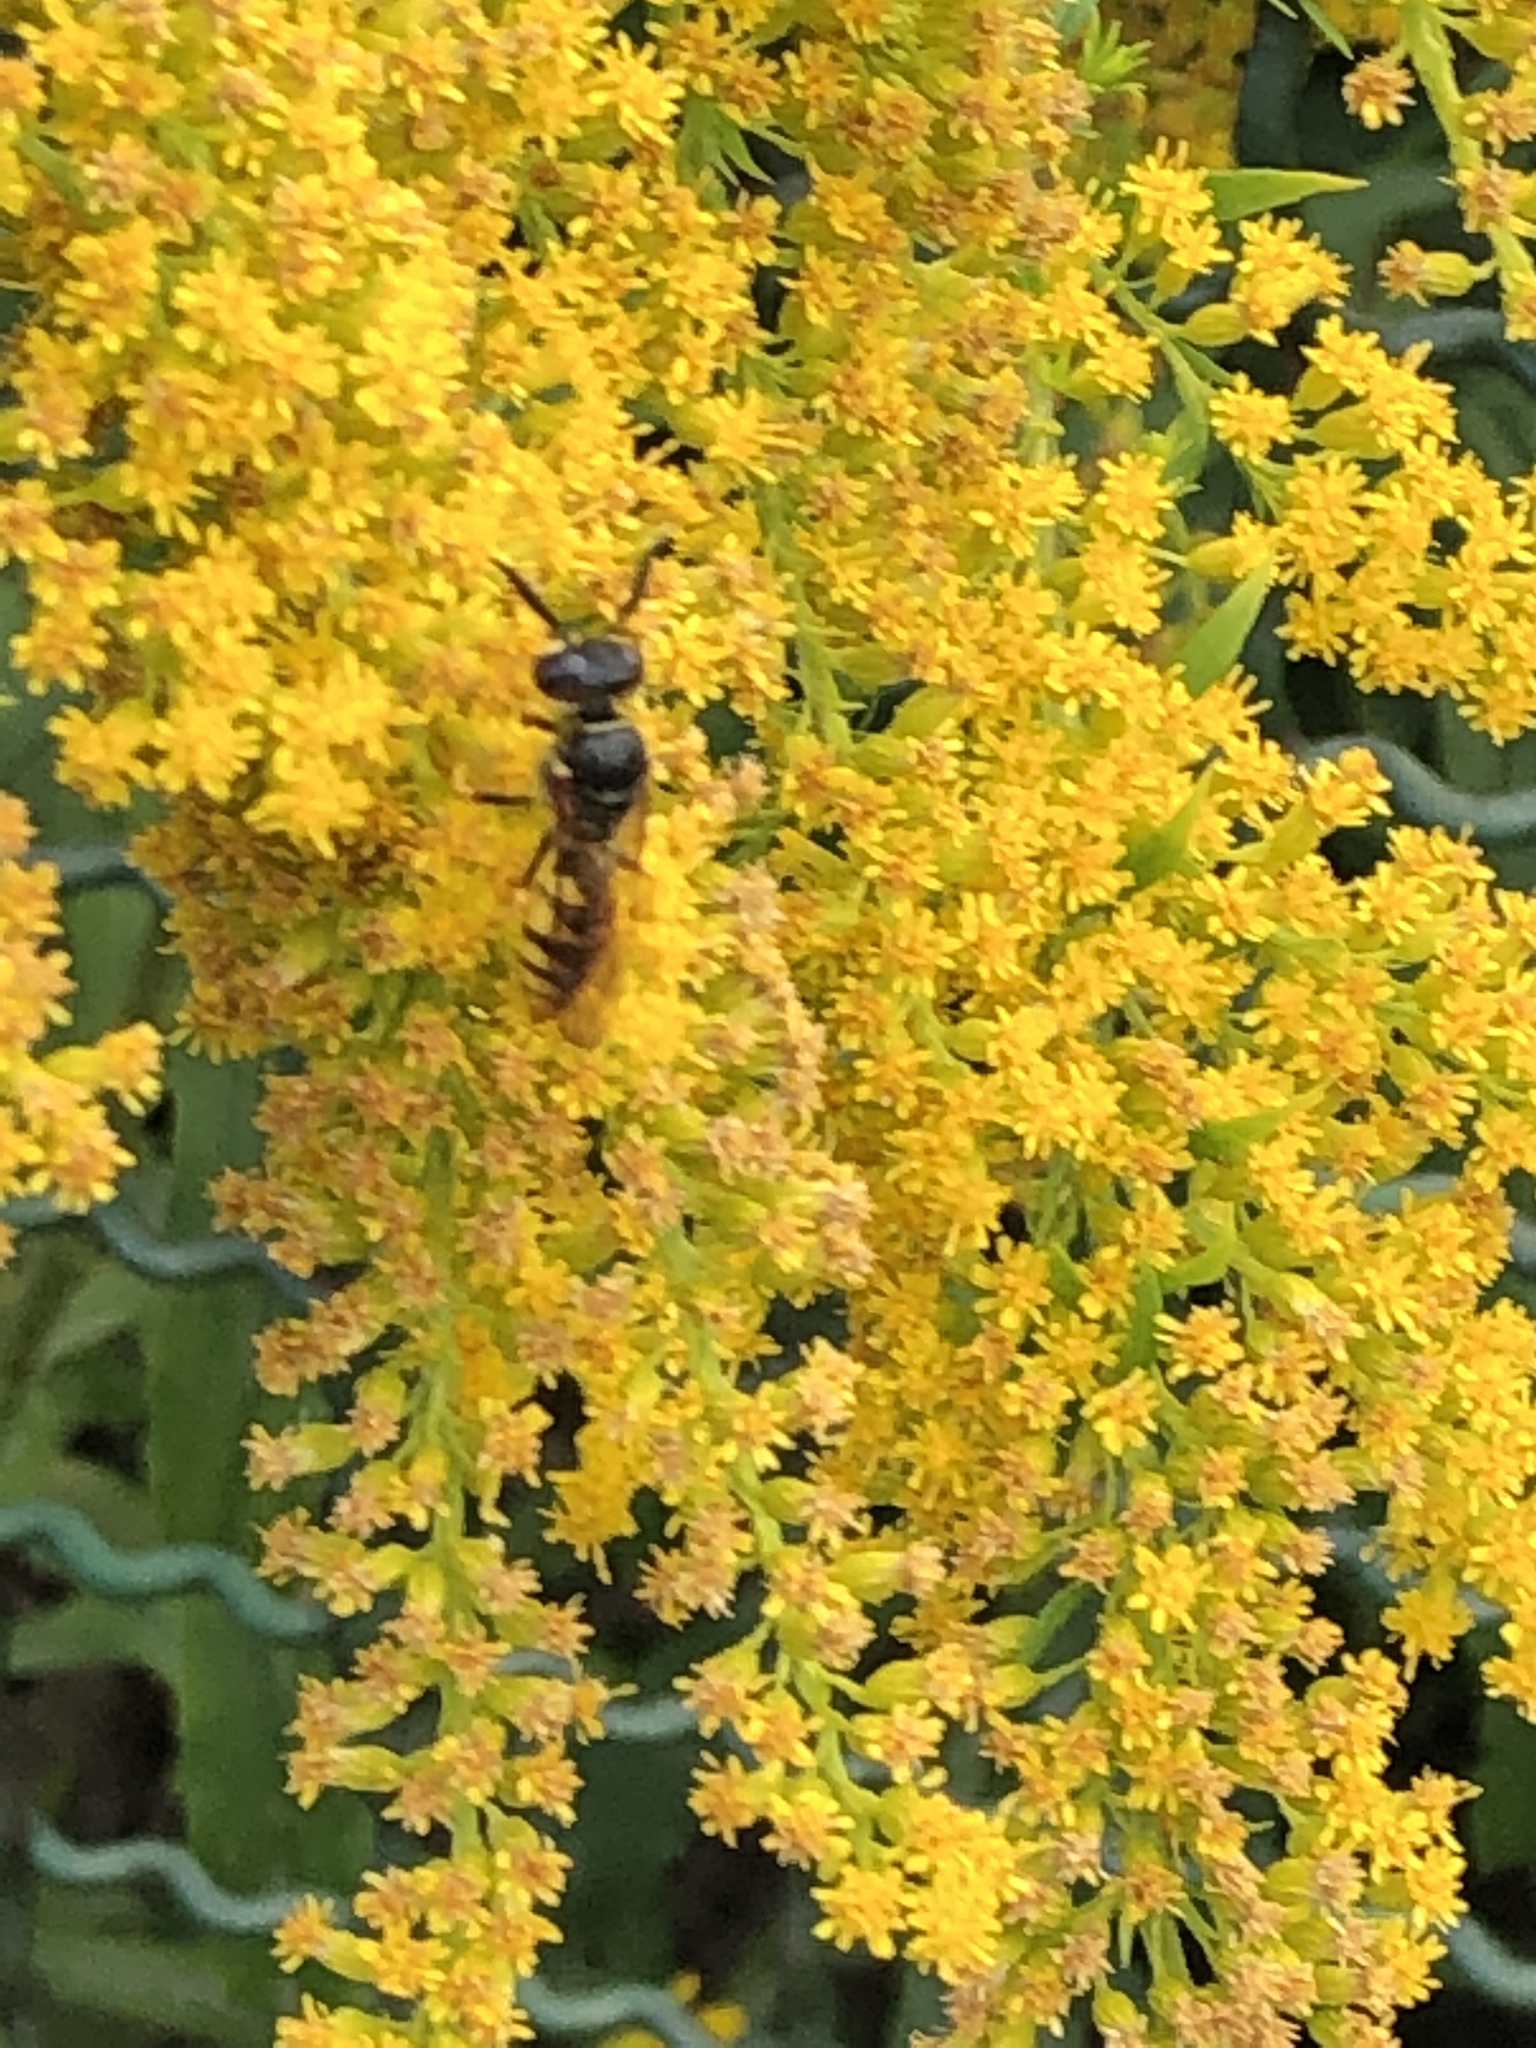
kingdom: Animalia
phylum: Arthropoda
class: Insecta
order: Hymenoptera
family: Crabronidae
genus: Philanthus
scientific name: Philanthus triangulum
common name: Bee wolf
